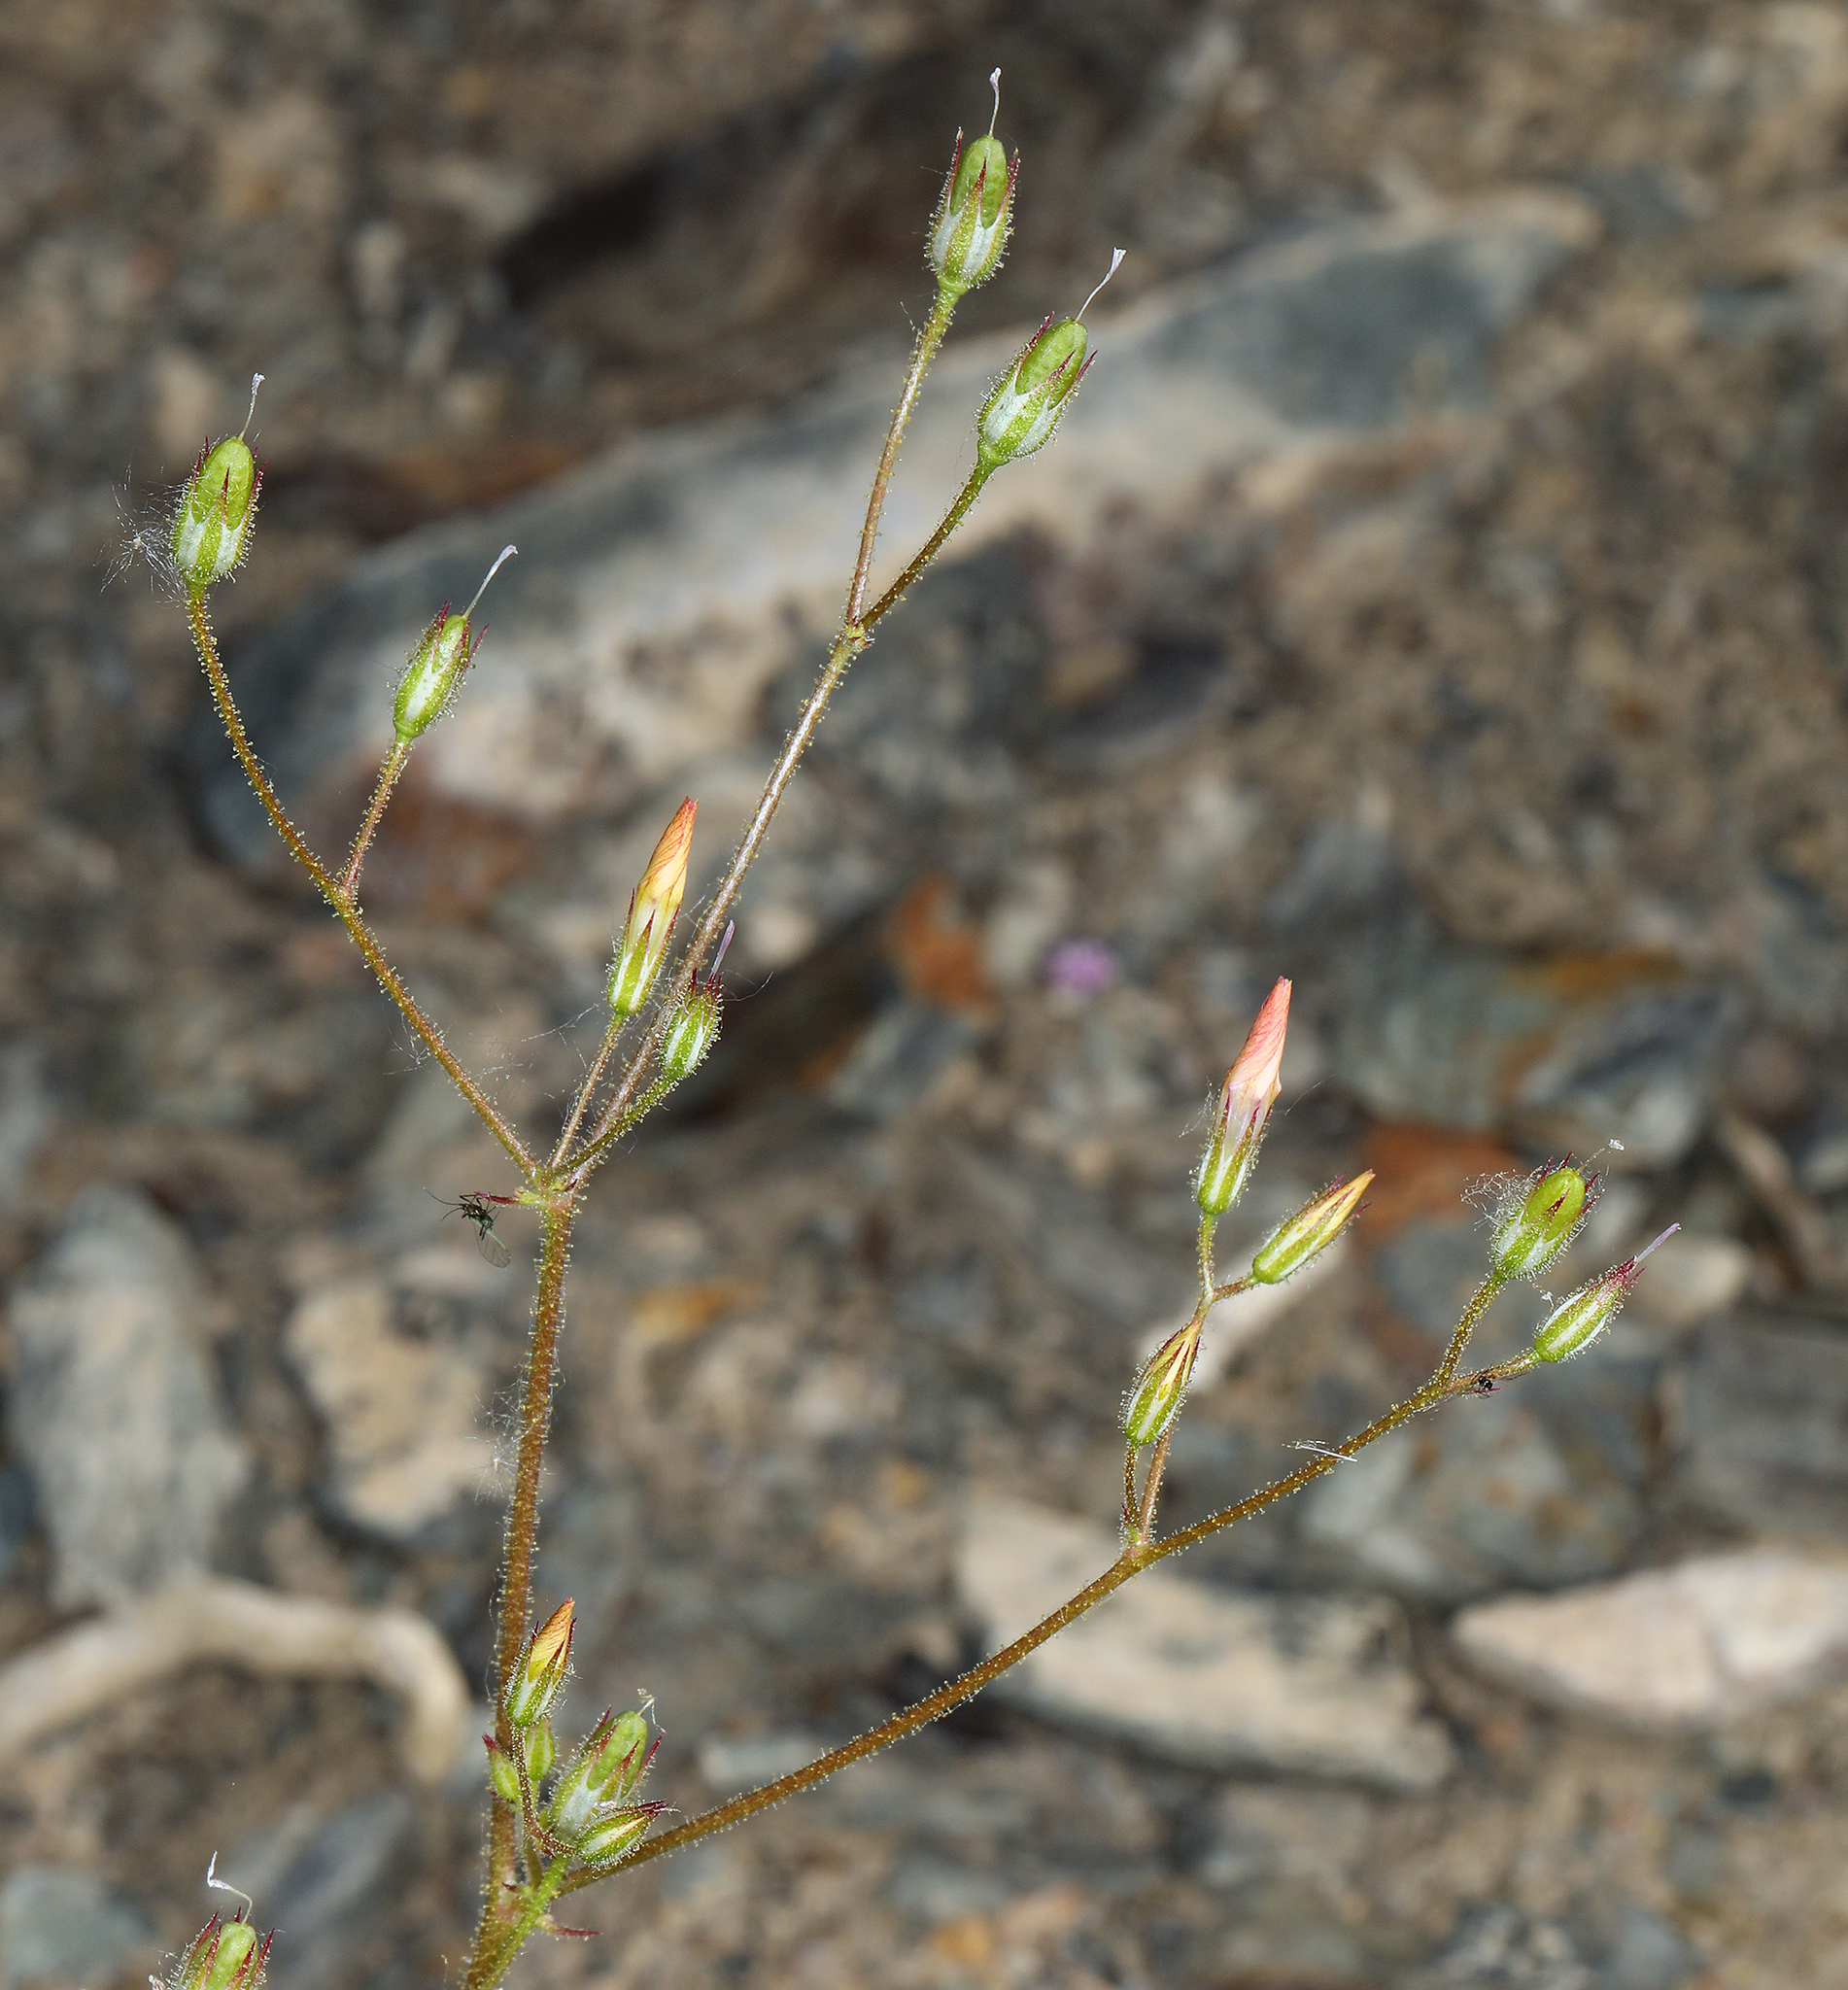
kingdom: Plantae
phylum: Tracheophyta
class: Magnoliopsida
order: Ericales
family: Polemoniaceae
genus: Aliciella
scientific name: Aliciella latifolia
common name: Broad-leaf gilia
